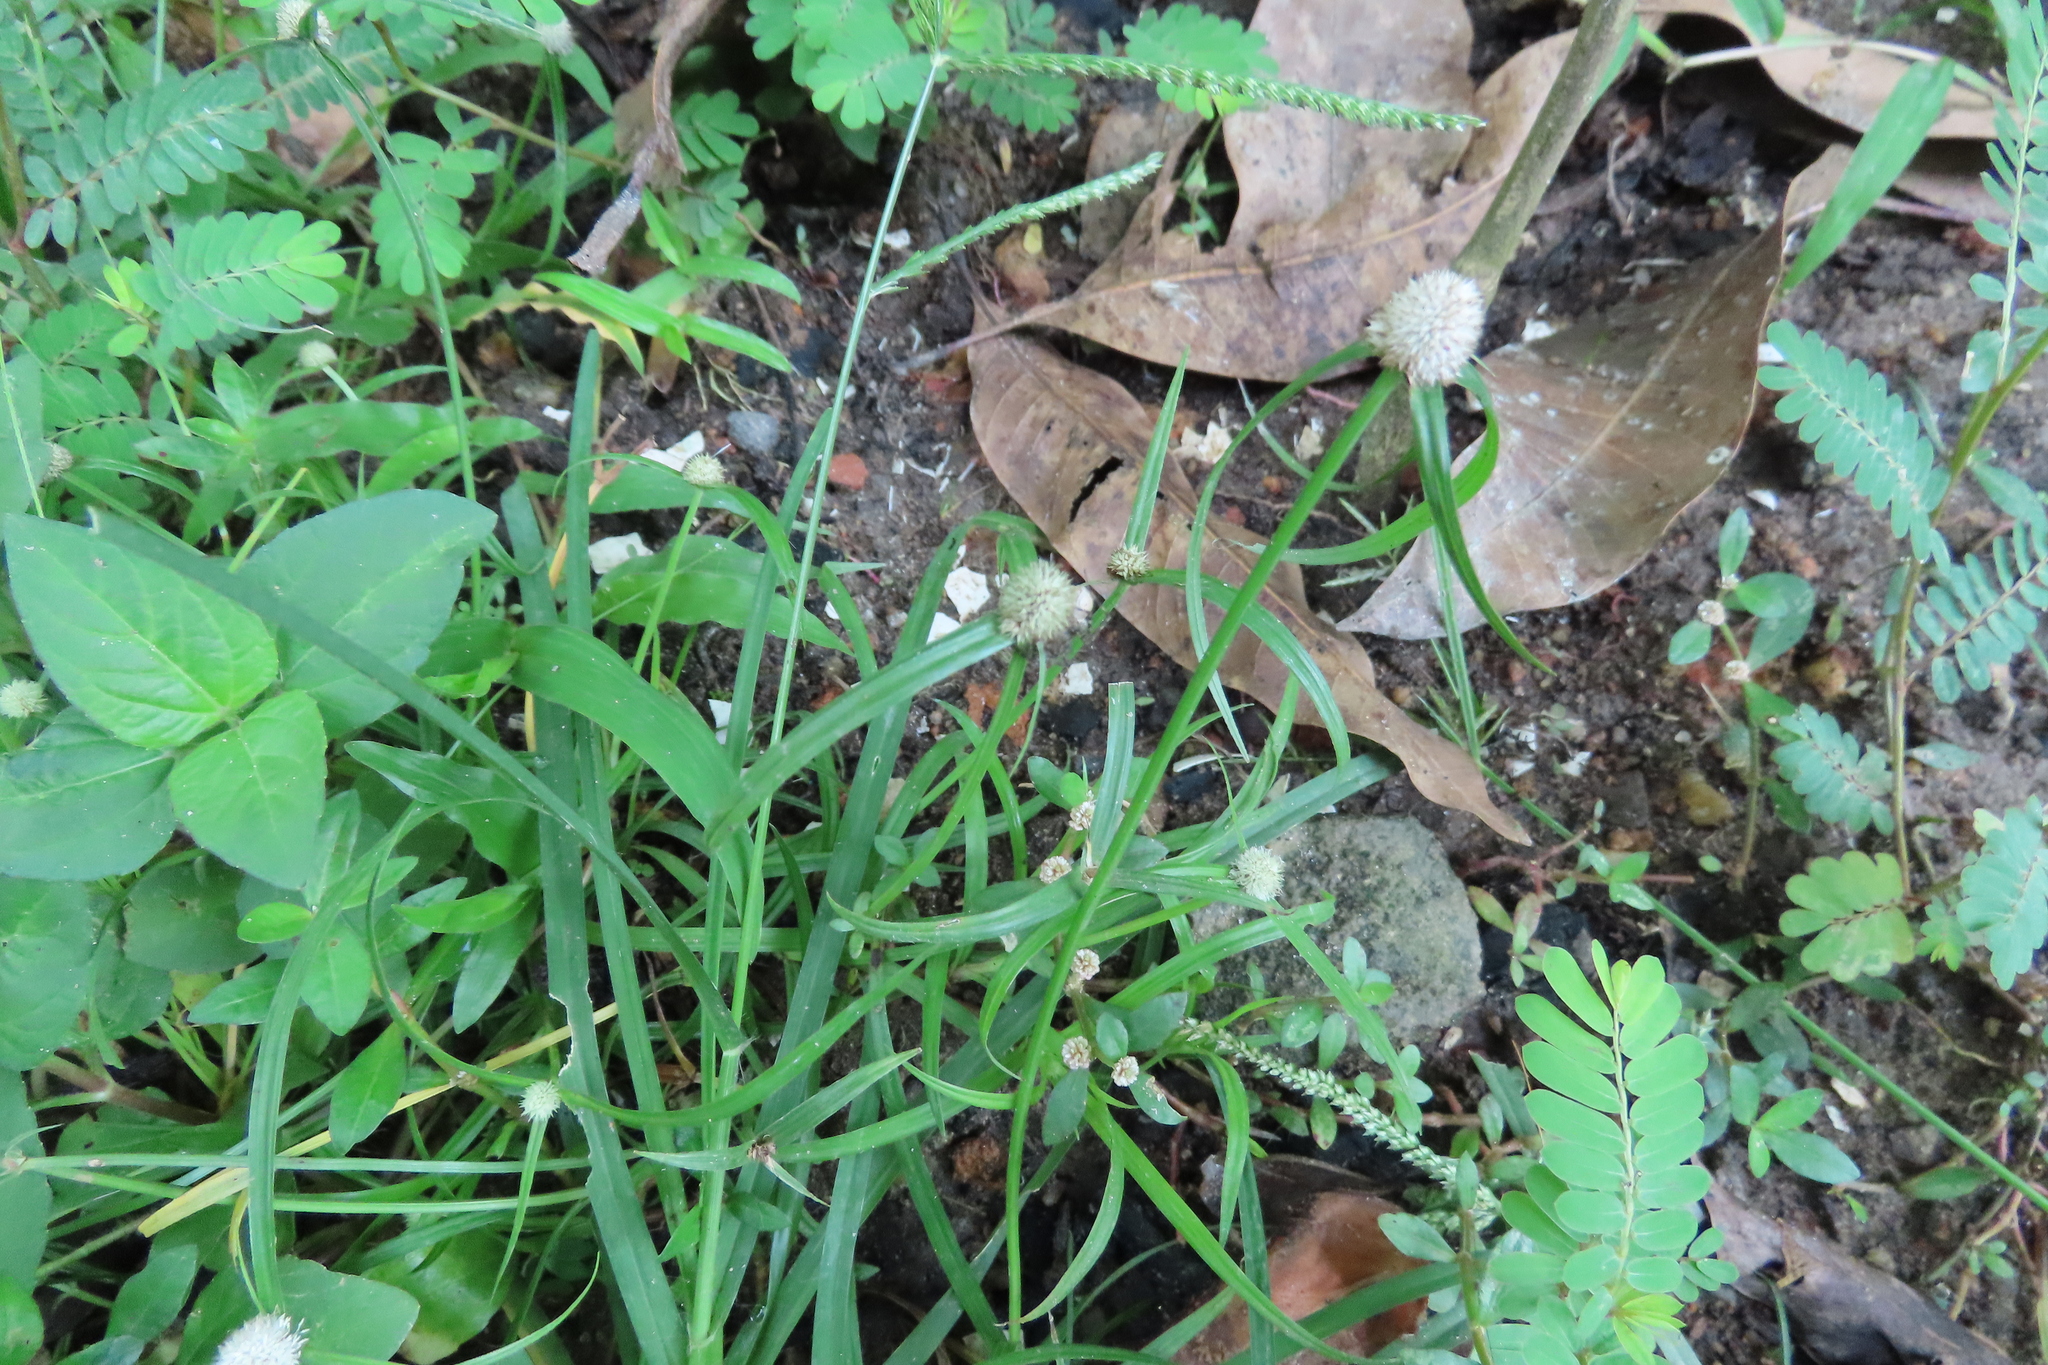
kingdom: Plantae
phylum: Tracheophyta
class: Liliopsida
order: Poales
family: Cyperaceae
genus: Cyperus
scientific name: Cyperus mindorensis
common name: Flatsedge
